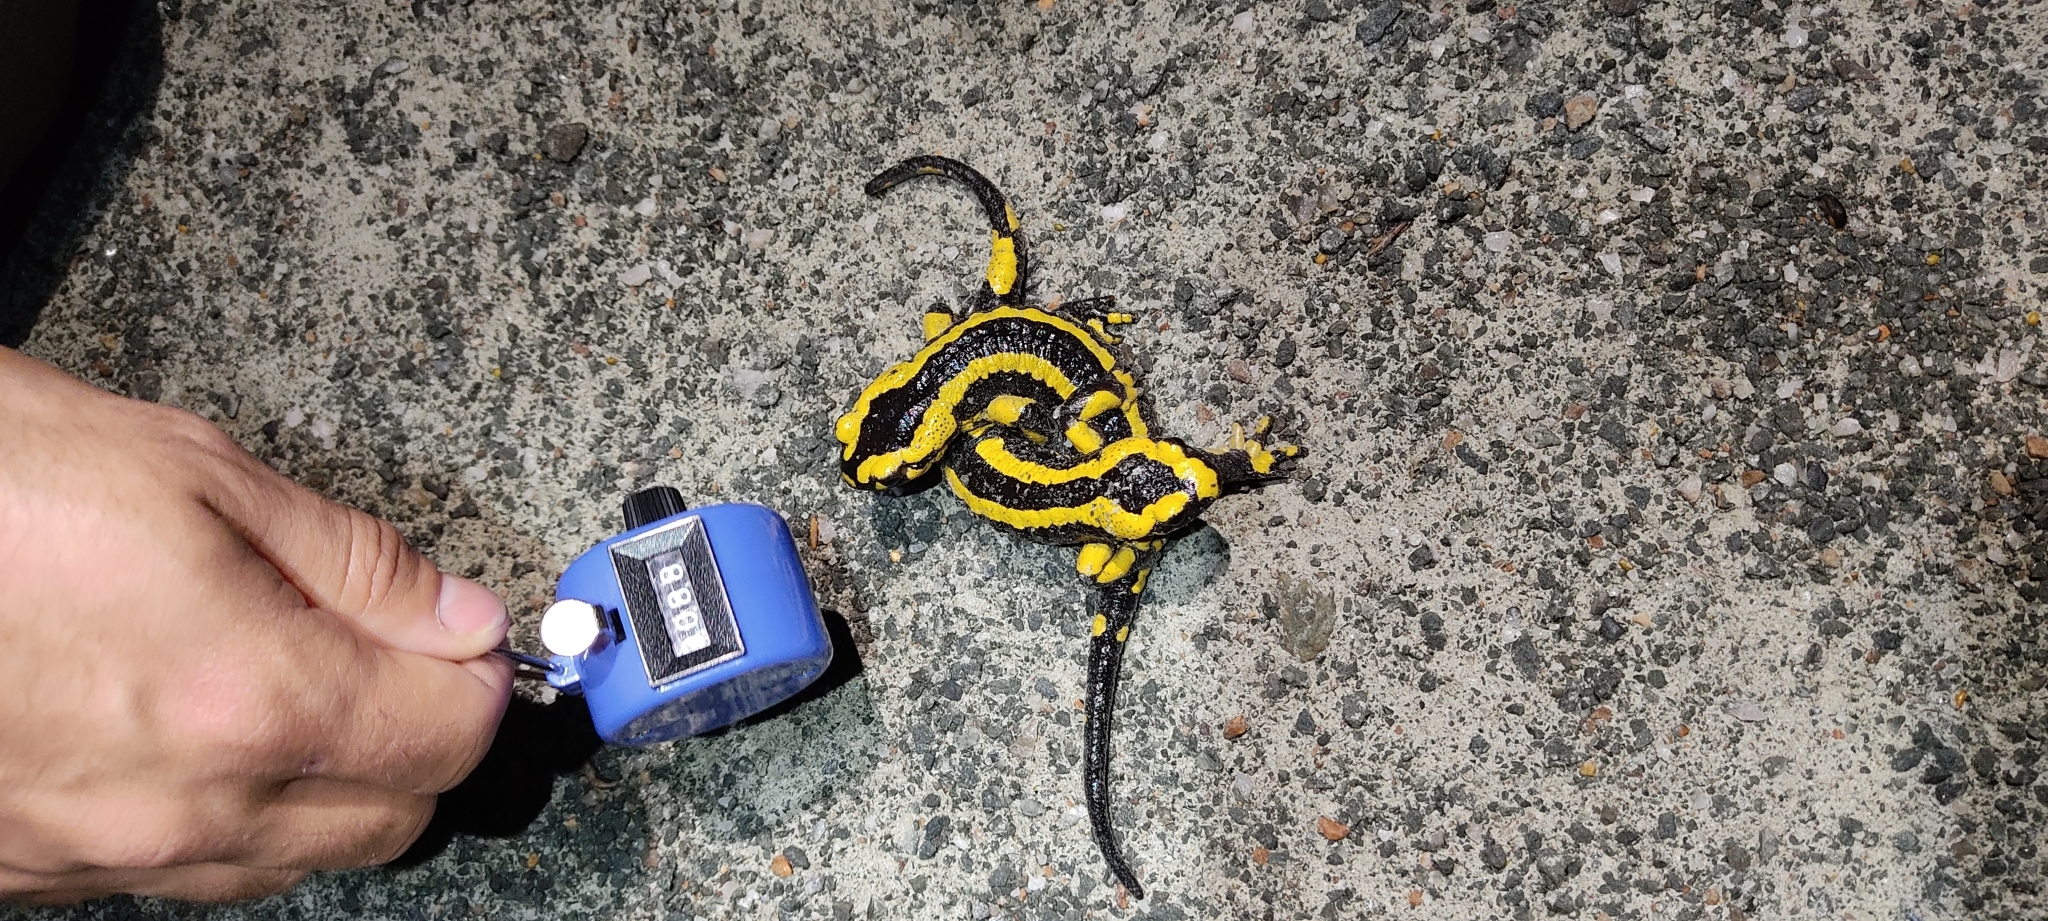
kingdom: Animalia
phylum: Chordata
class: Amphibia
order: Caudata
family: Salamandridae
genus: Salamandra
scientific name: Salamandra salamandra
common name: Fire salamander
